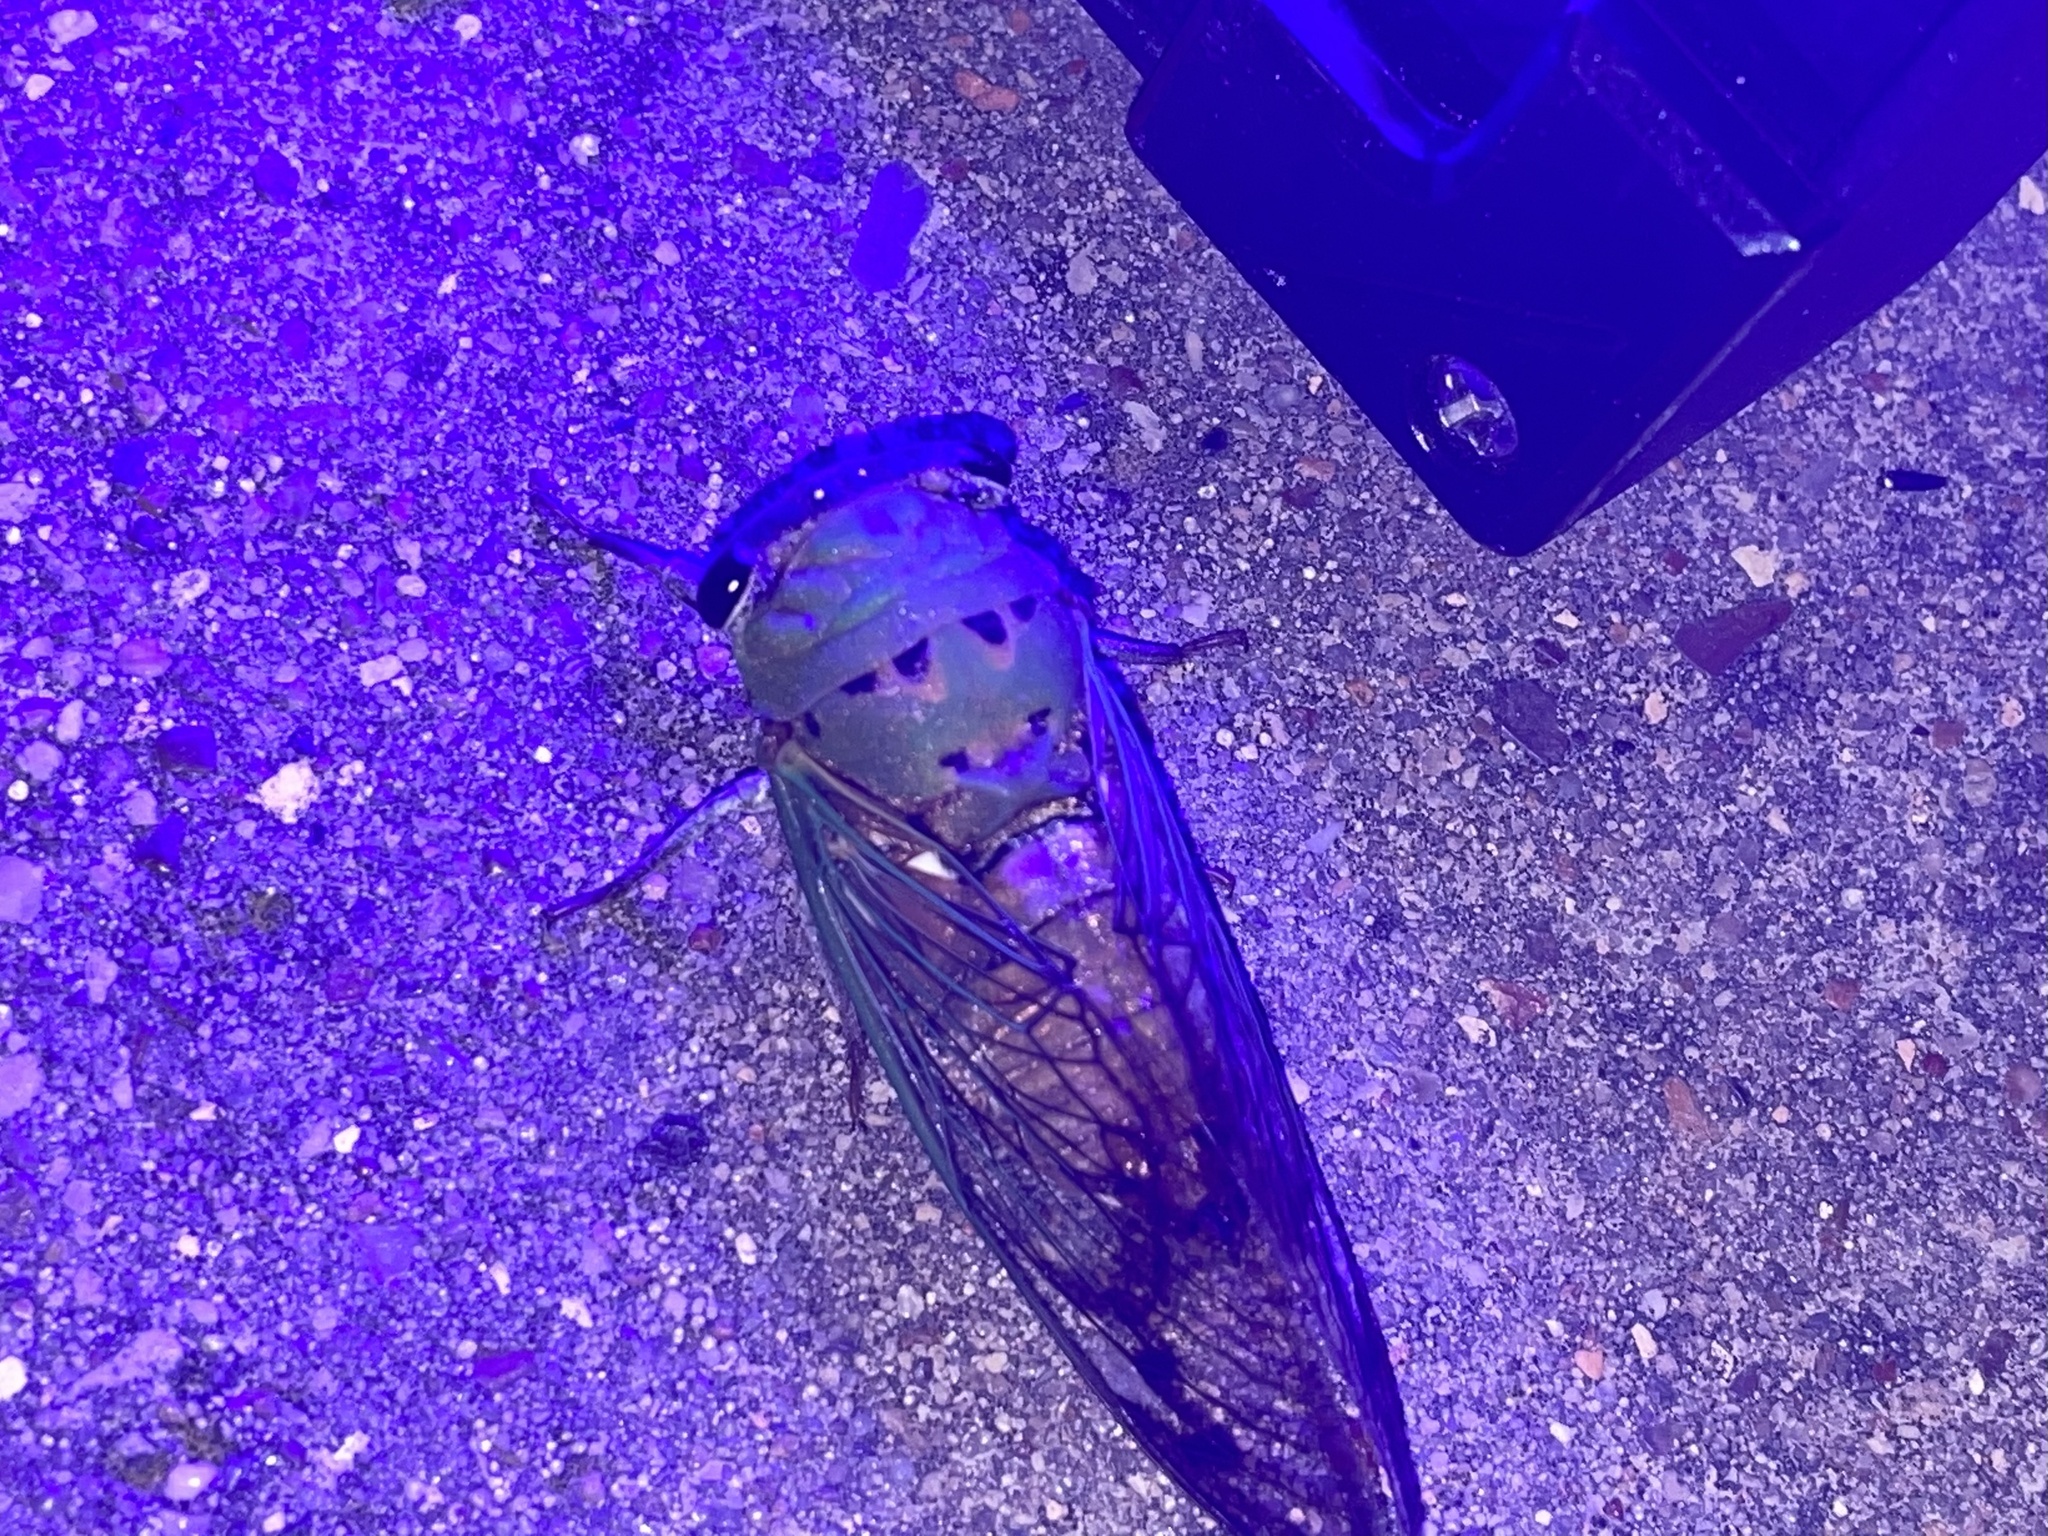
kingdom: Animalia
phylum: Arthropoda
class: Insecta
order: Hemiptera
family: Cicadidae
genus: Neotibicen
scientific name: Neotibicen superbus
